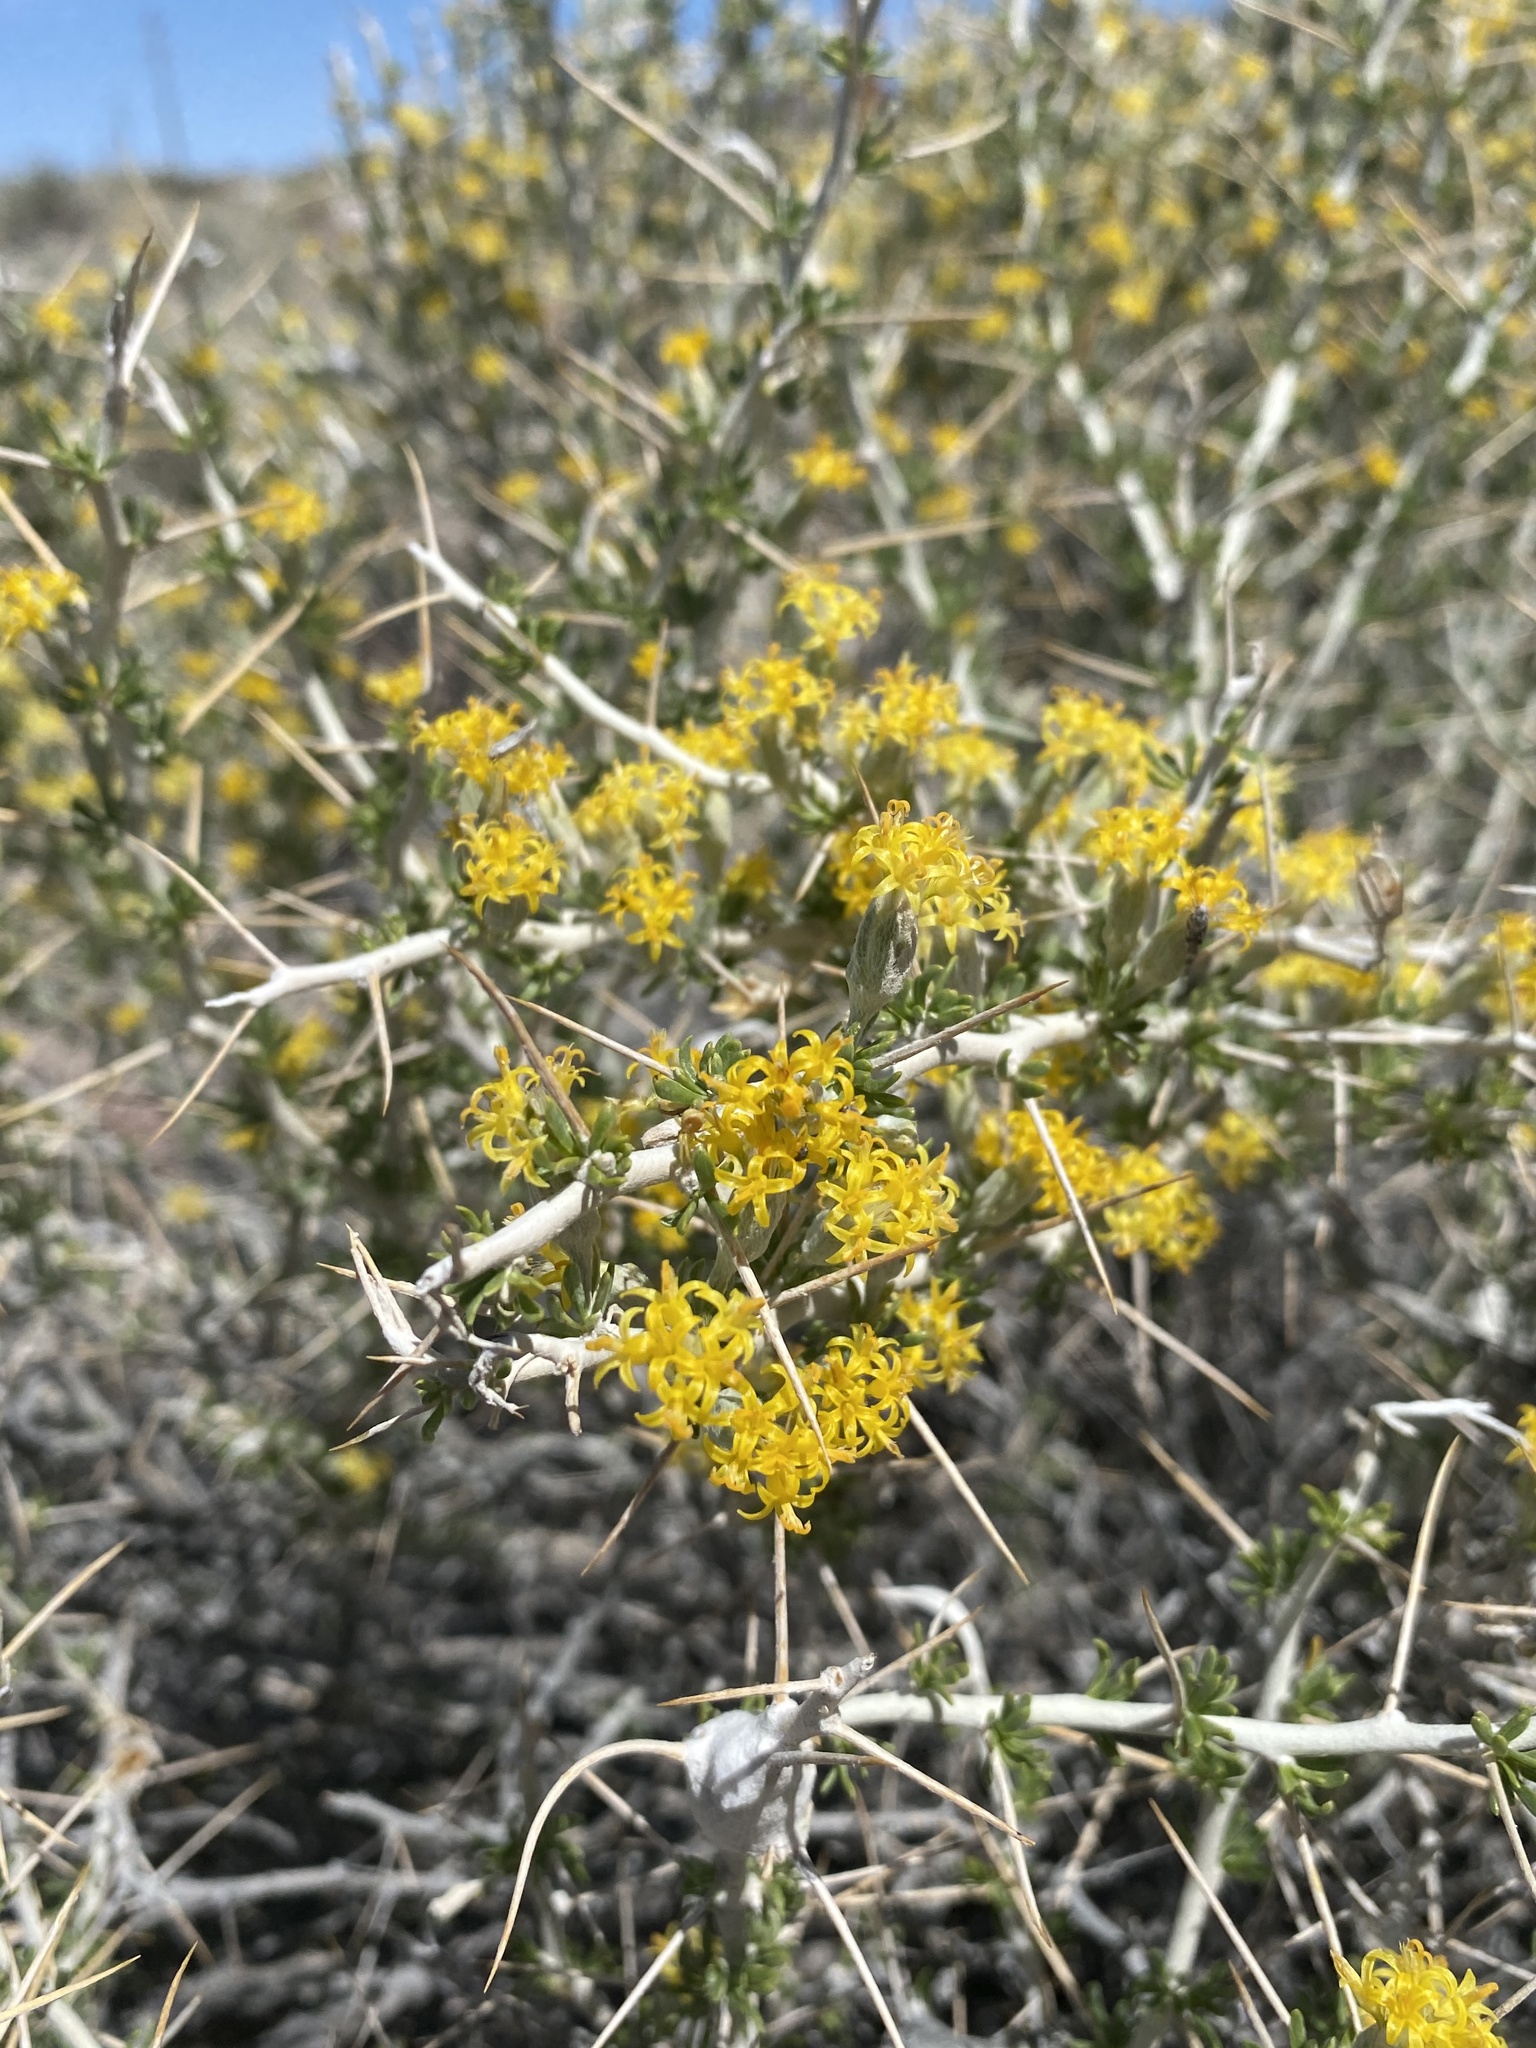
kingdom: Plantae
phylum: Tracheophyta
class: Magnoliopsida
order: Asterales
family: Asteraceae
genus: Tetradymia
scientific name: Tetradymia axillaris
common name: Long-spine horsebrush
